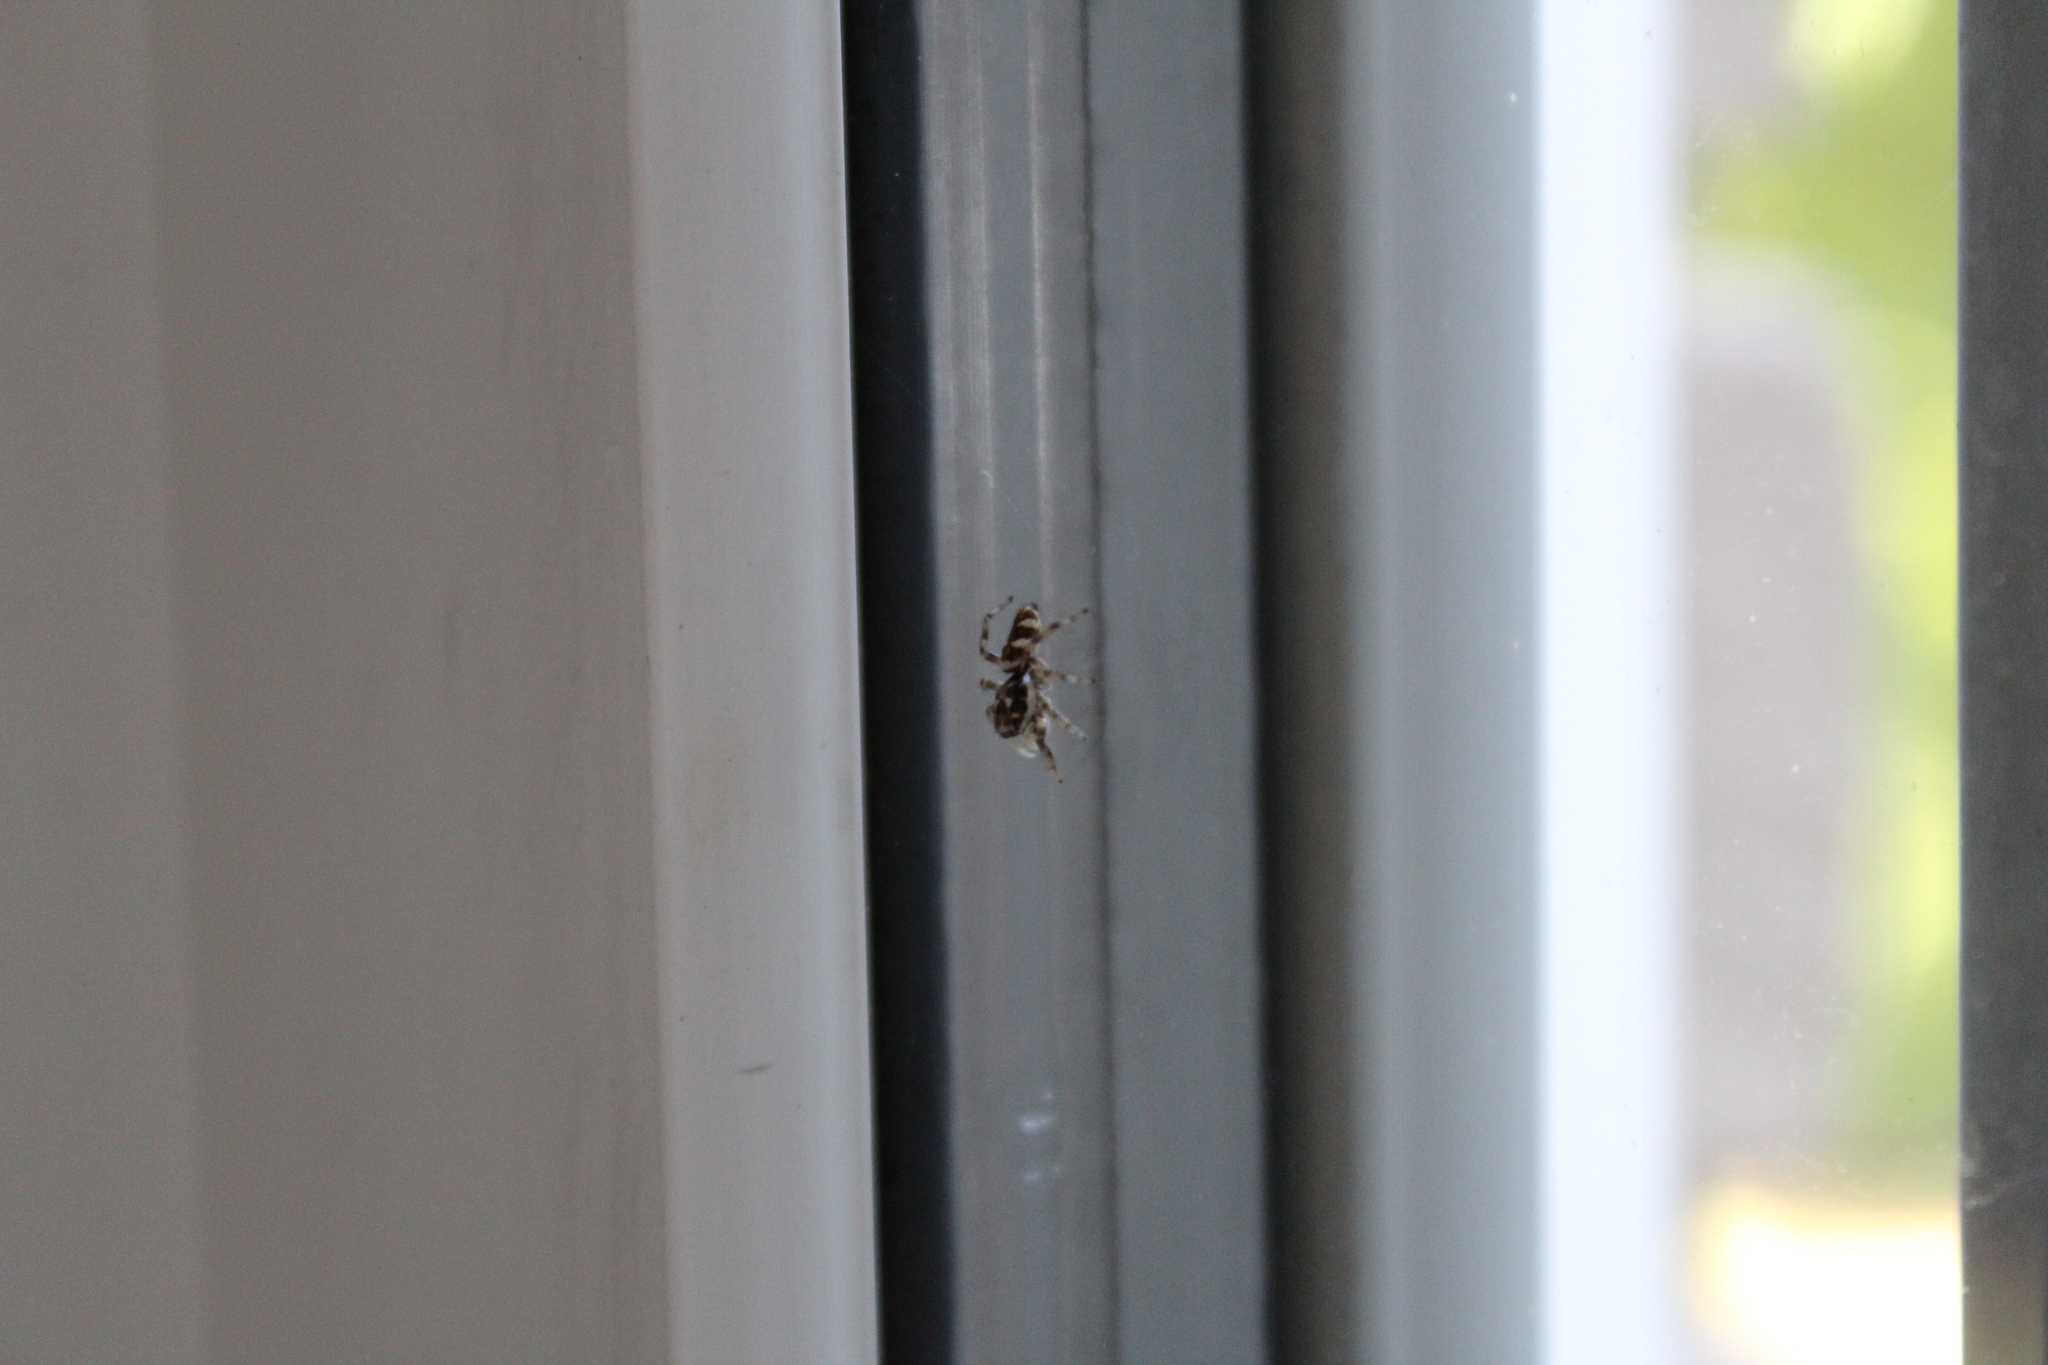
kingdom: Animalia
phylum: Arthropoda
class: Arachnida
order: Araneae
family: Salticidae
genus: Salticus
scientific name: Salticus scenicus
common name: Zebra jumper
